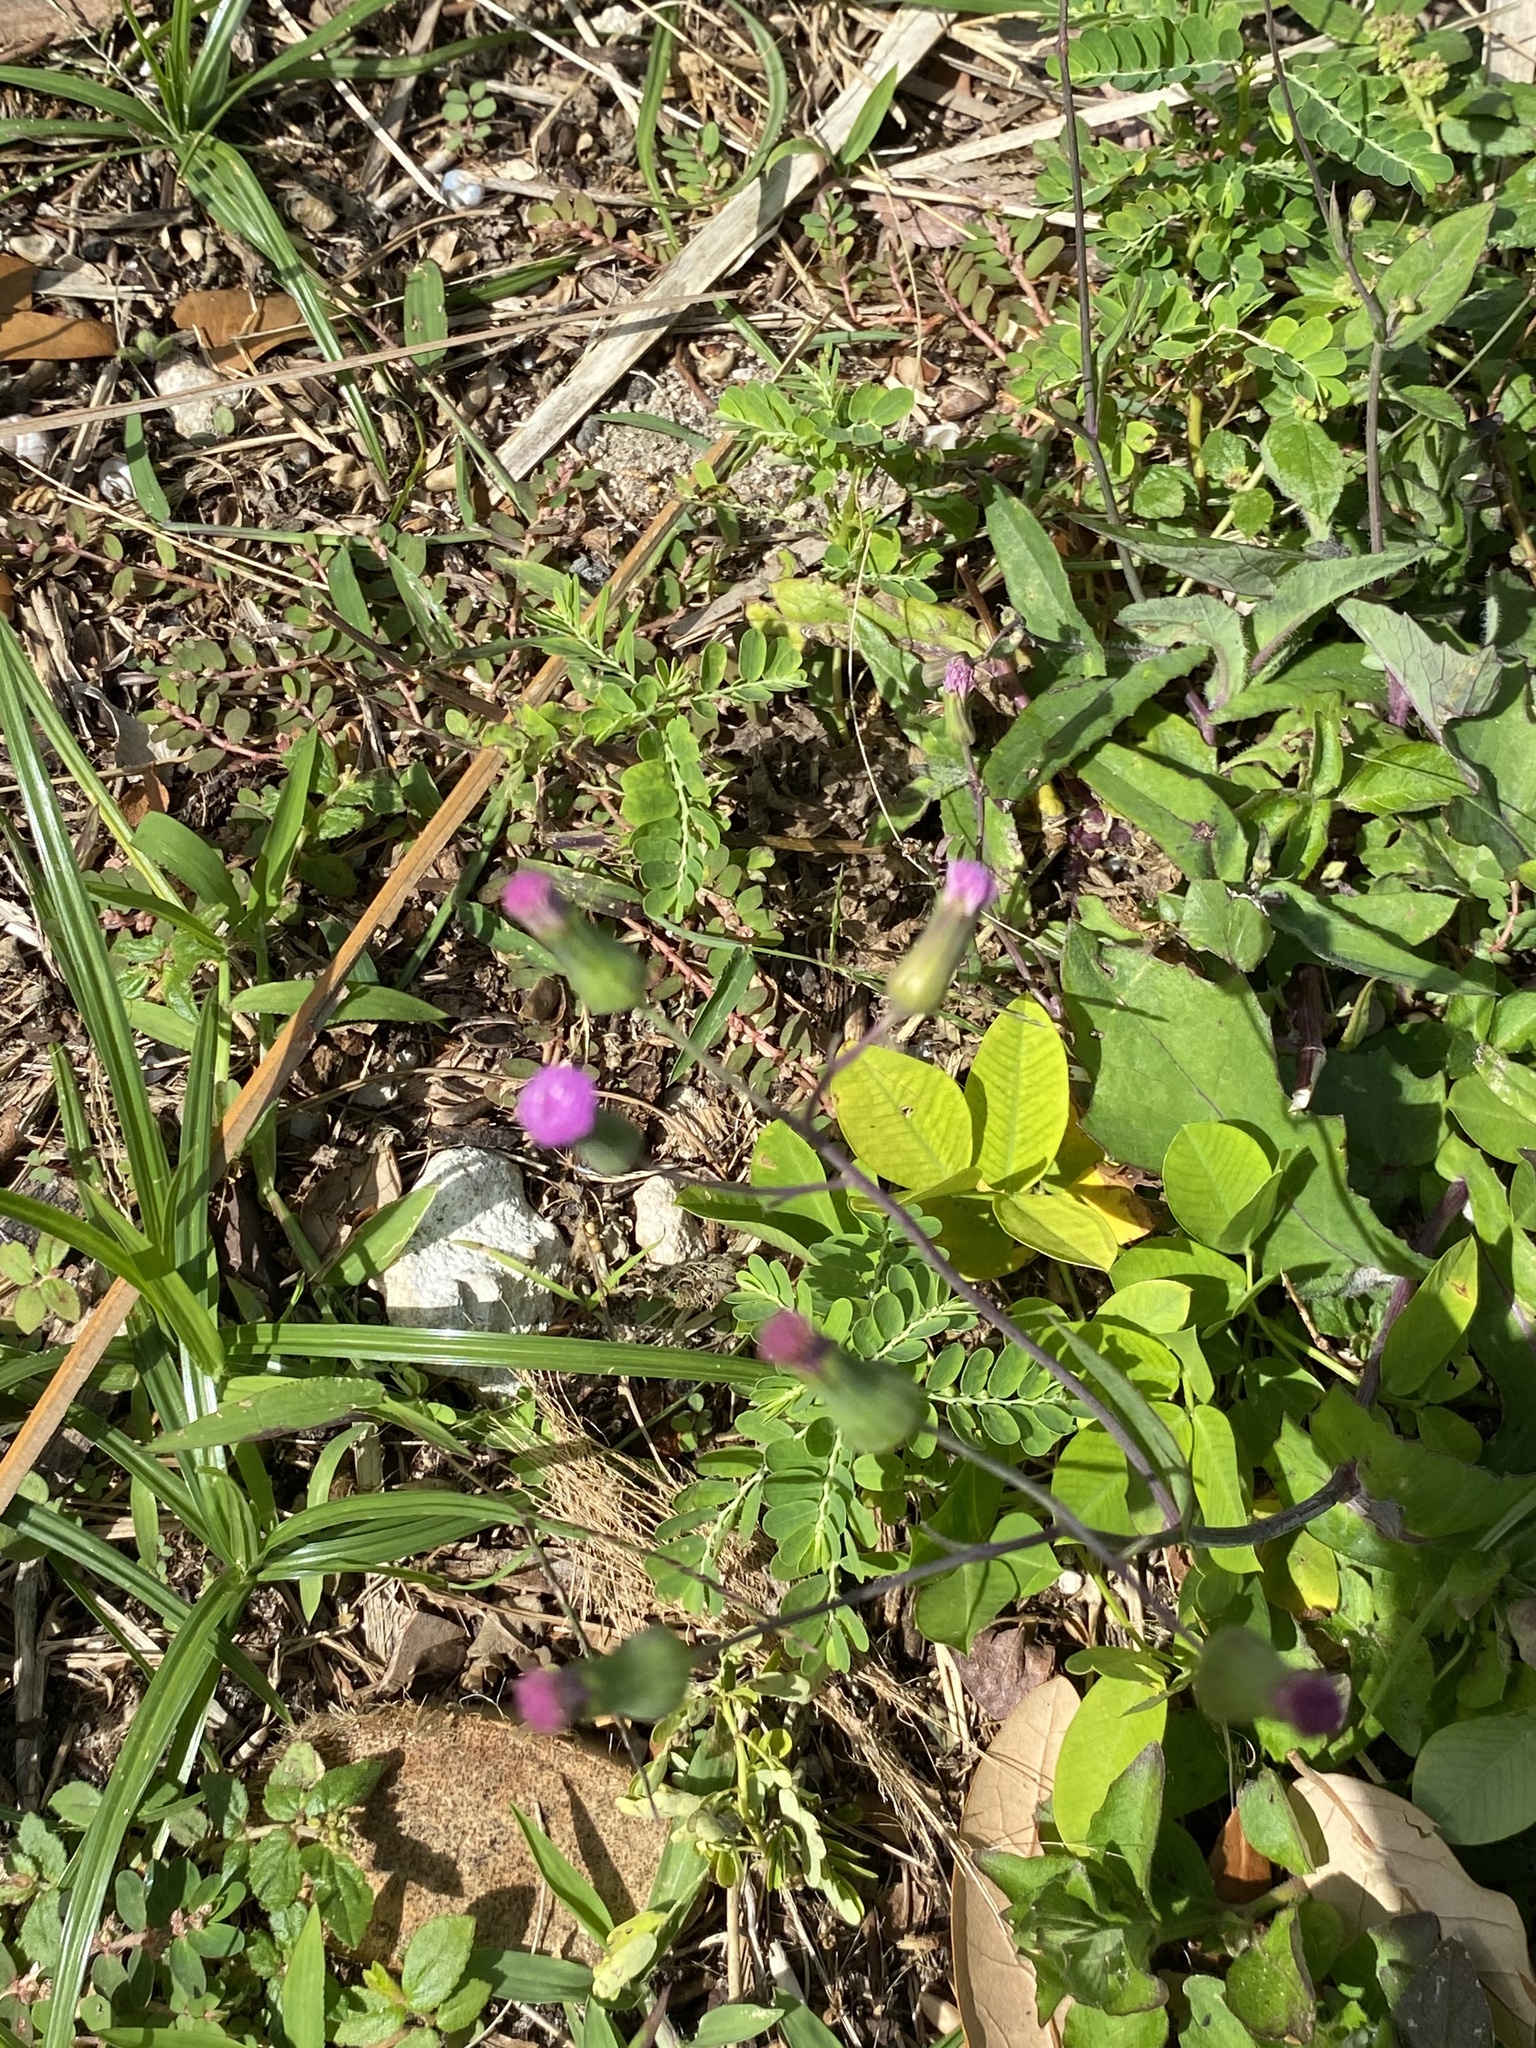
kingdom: Plantae
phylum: Tracheophyta
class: Magnoliopsida
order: Asterales
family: Asteraceae
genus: Emilia
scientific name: Emilia sonchifolia
